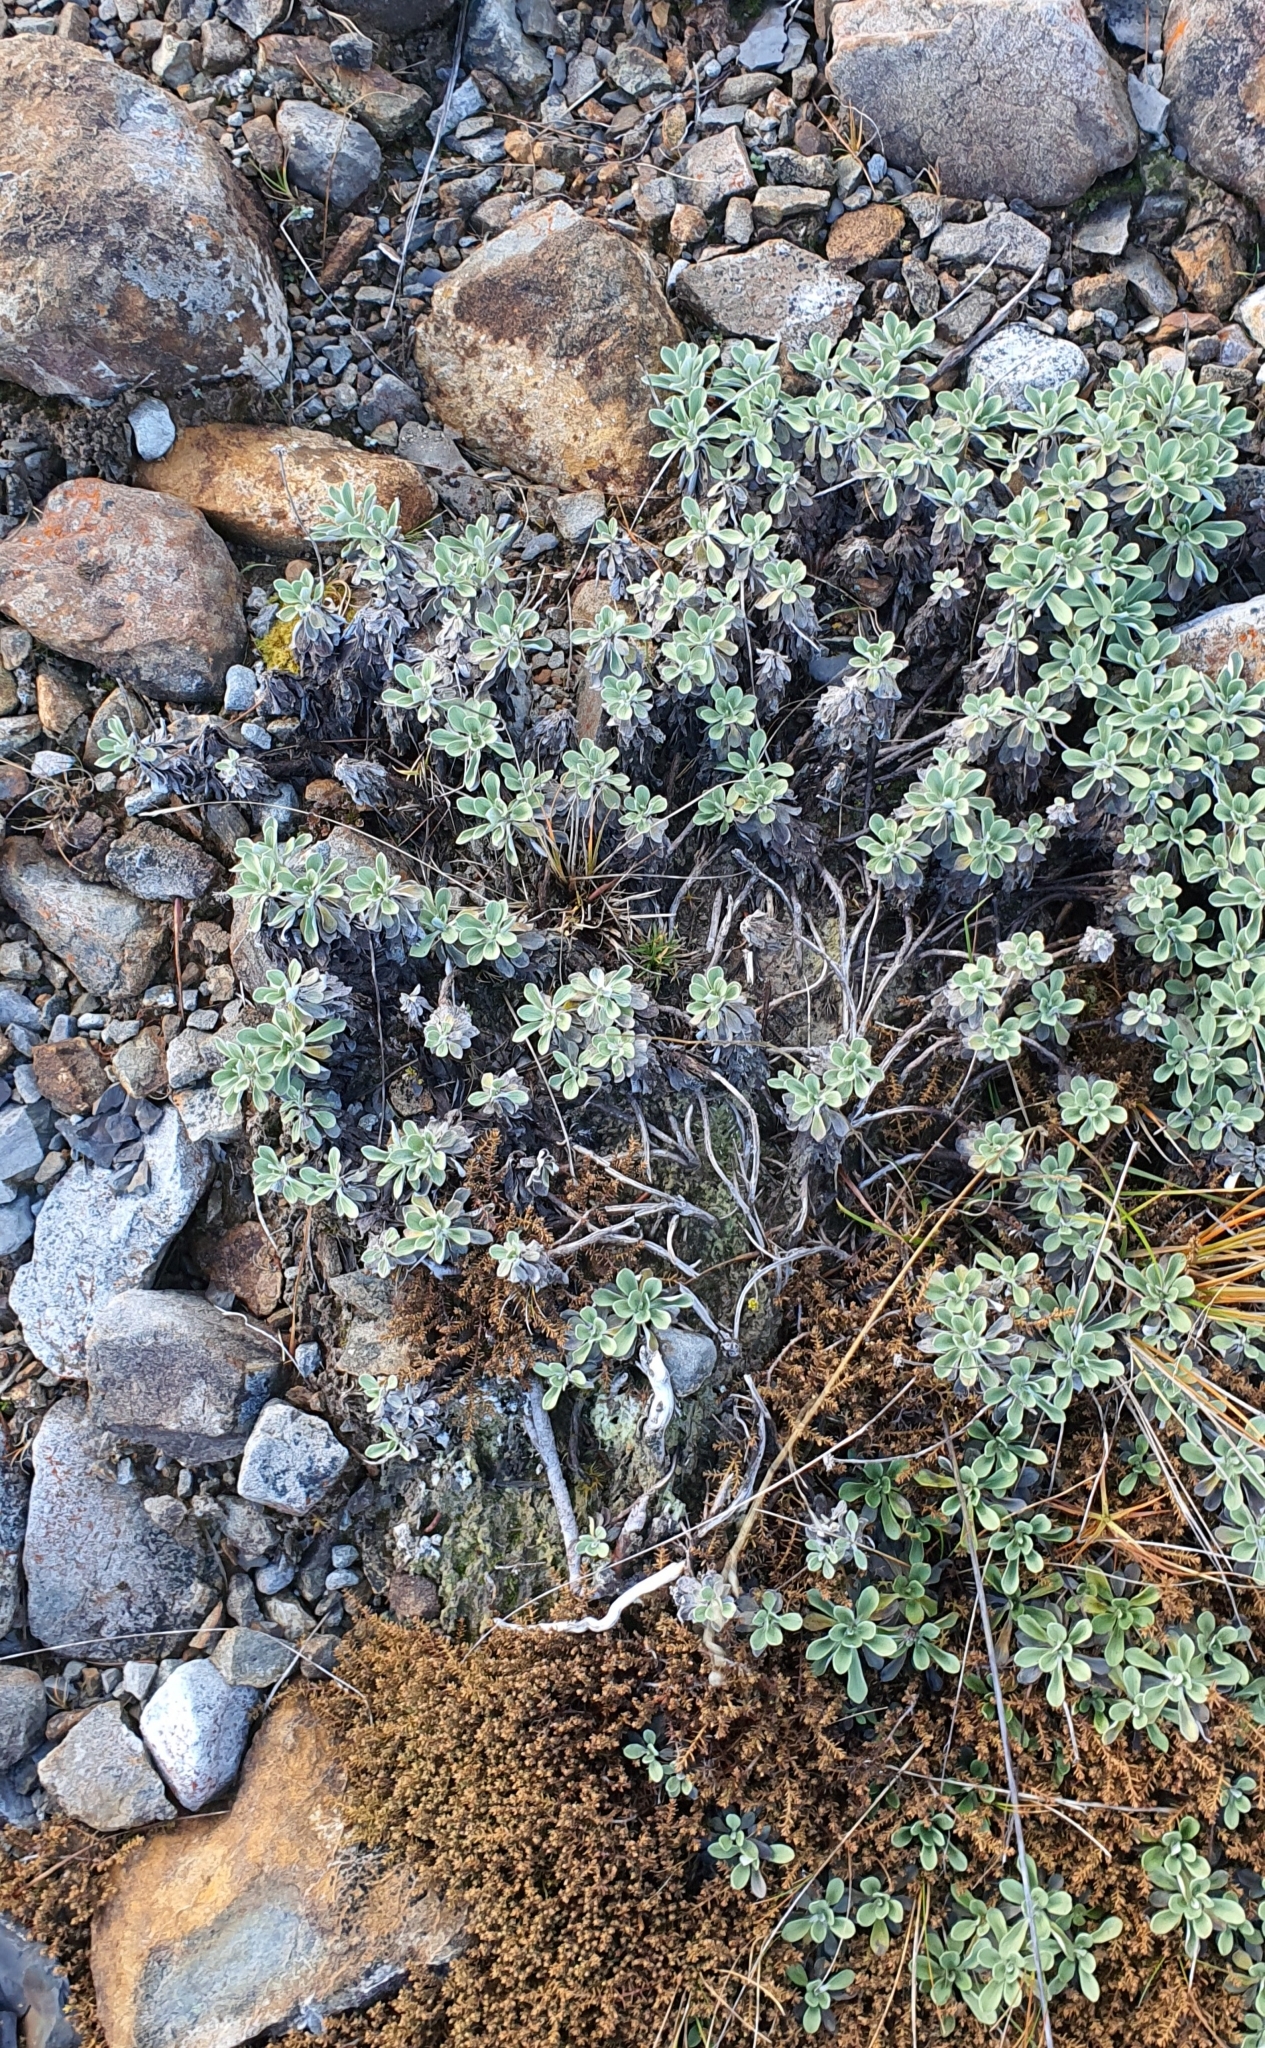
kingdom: Plantae
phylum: Tracheophyta
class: Magnoliopsida
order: Asterales
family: Asteraceae
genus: Celmisia
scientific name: Celmisia discolor
